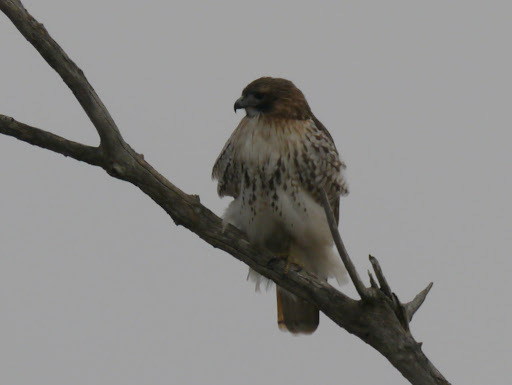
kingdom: Animalia
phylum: Chordata
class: Aves
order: Accipitriformes
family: Accipitridae
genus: Buteo
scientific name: Buteo jamaicensis
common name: Red-tailed hawk
